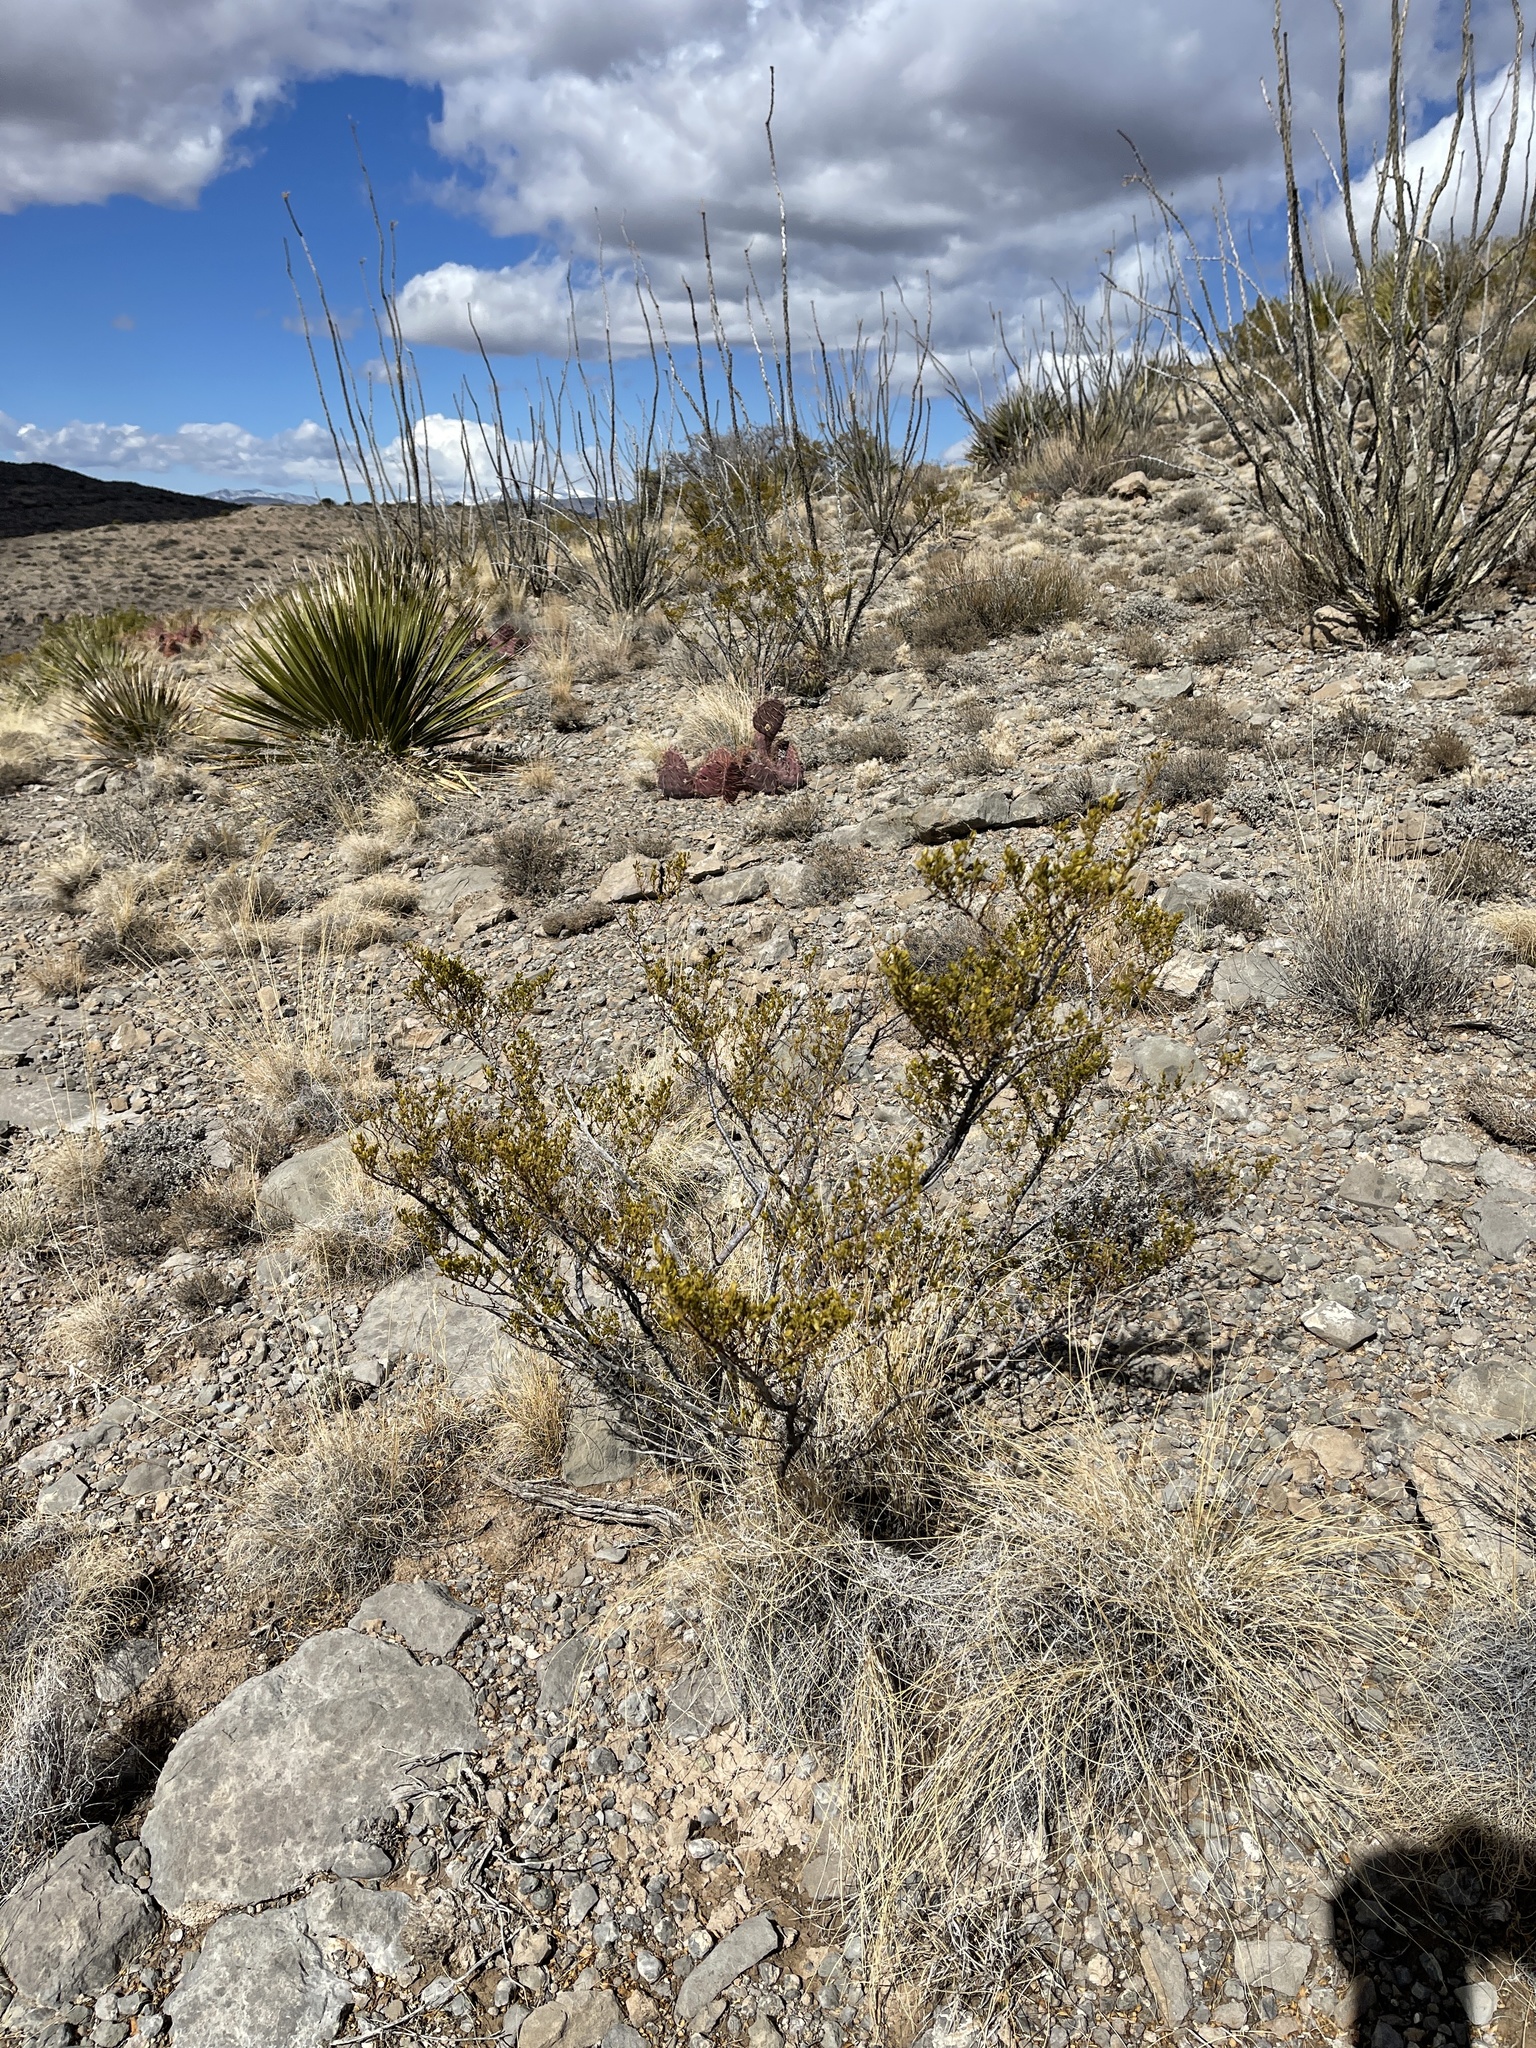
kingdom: Plantae
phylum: Tracheophyta
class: Magnoliopsida
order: Zygophyllales
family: Zygophyllaceae
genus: Larrea
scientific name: Larrea tridentata
